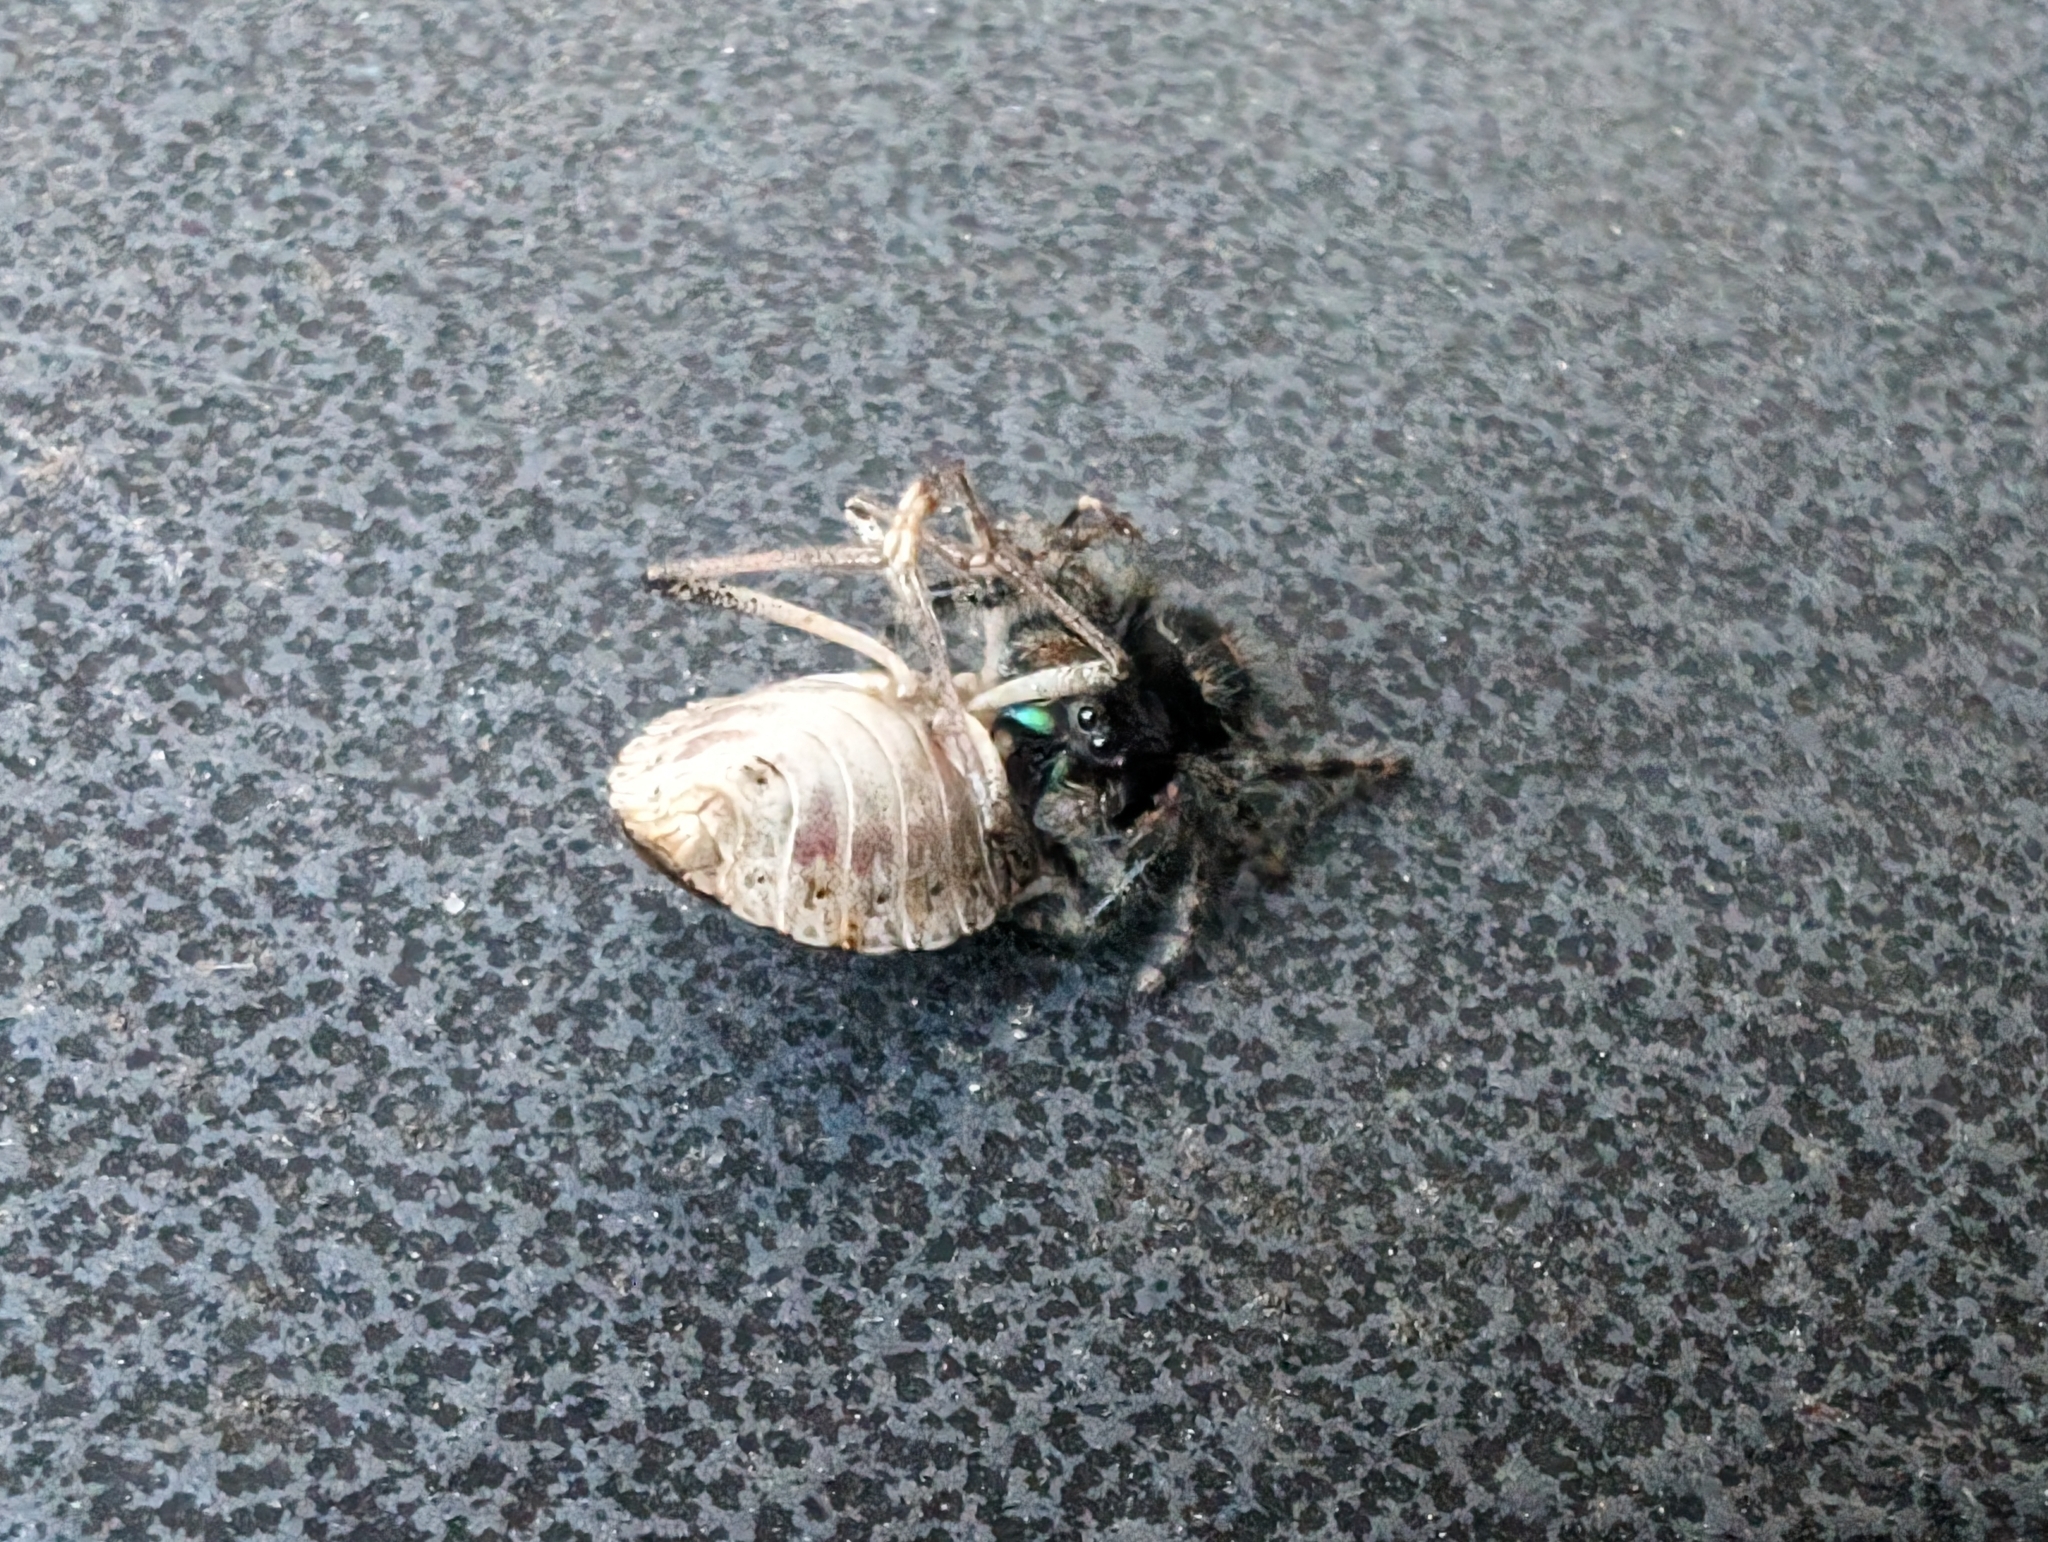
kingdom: Animalia
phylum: Arthropoda
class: Arachnida
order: Araneae
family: Salticidae
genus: Phidippus
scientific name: Phidippus audax
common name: Bold jumper
